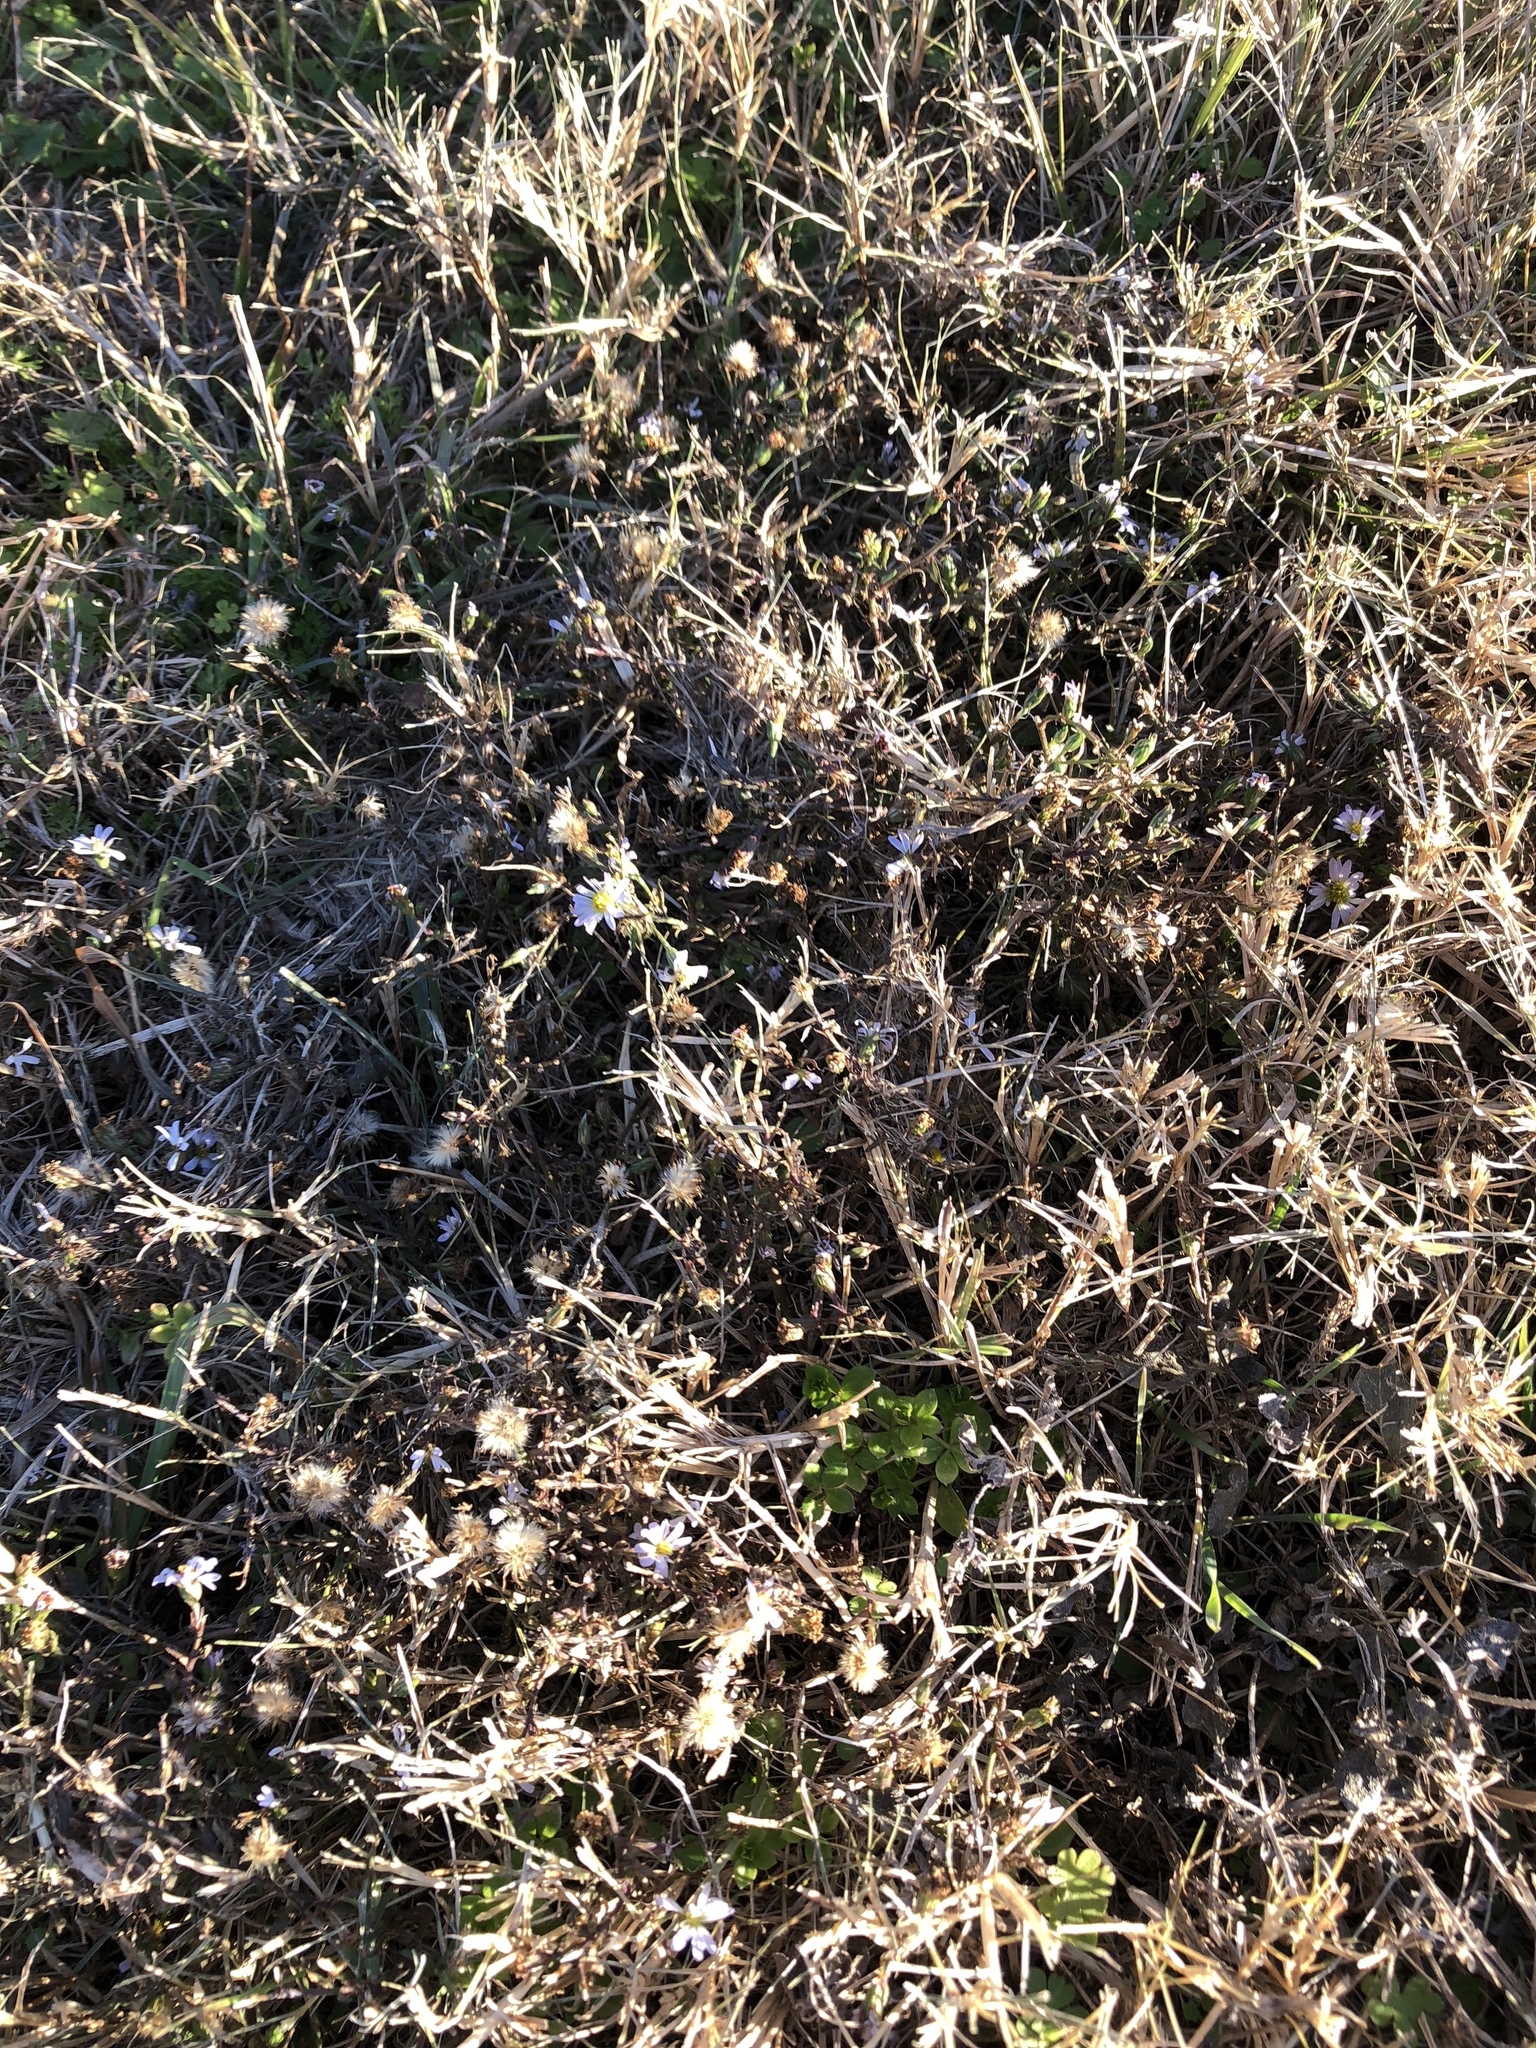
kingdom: Plantae
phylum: Tracheophyta
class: Magnoliopsida
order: Asterales
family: Asteraceae
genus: Symphyotrichum
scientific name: Symphyotrichum divaricatum
